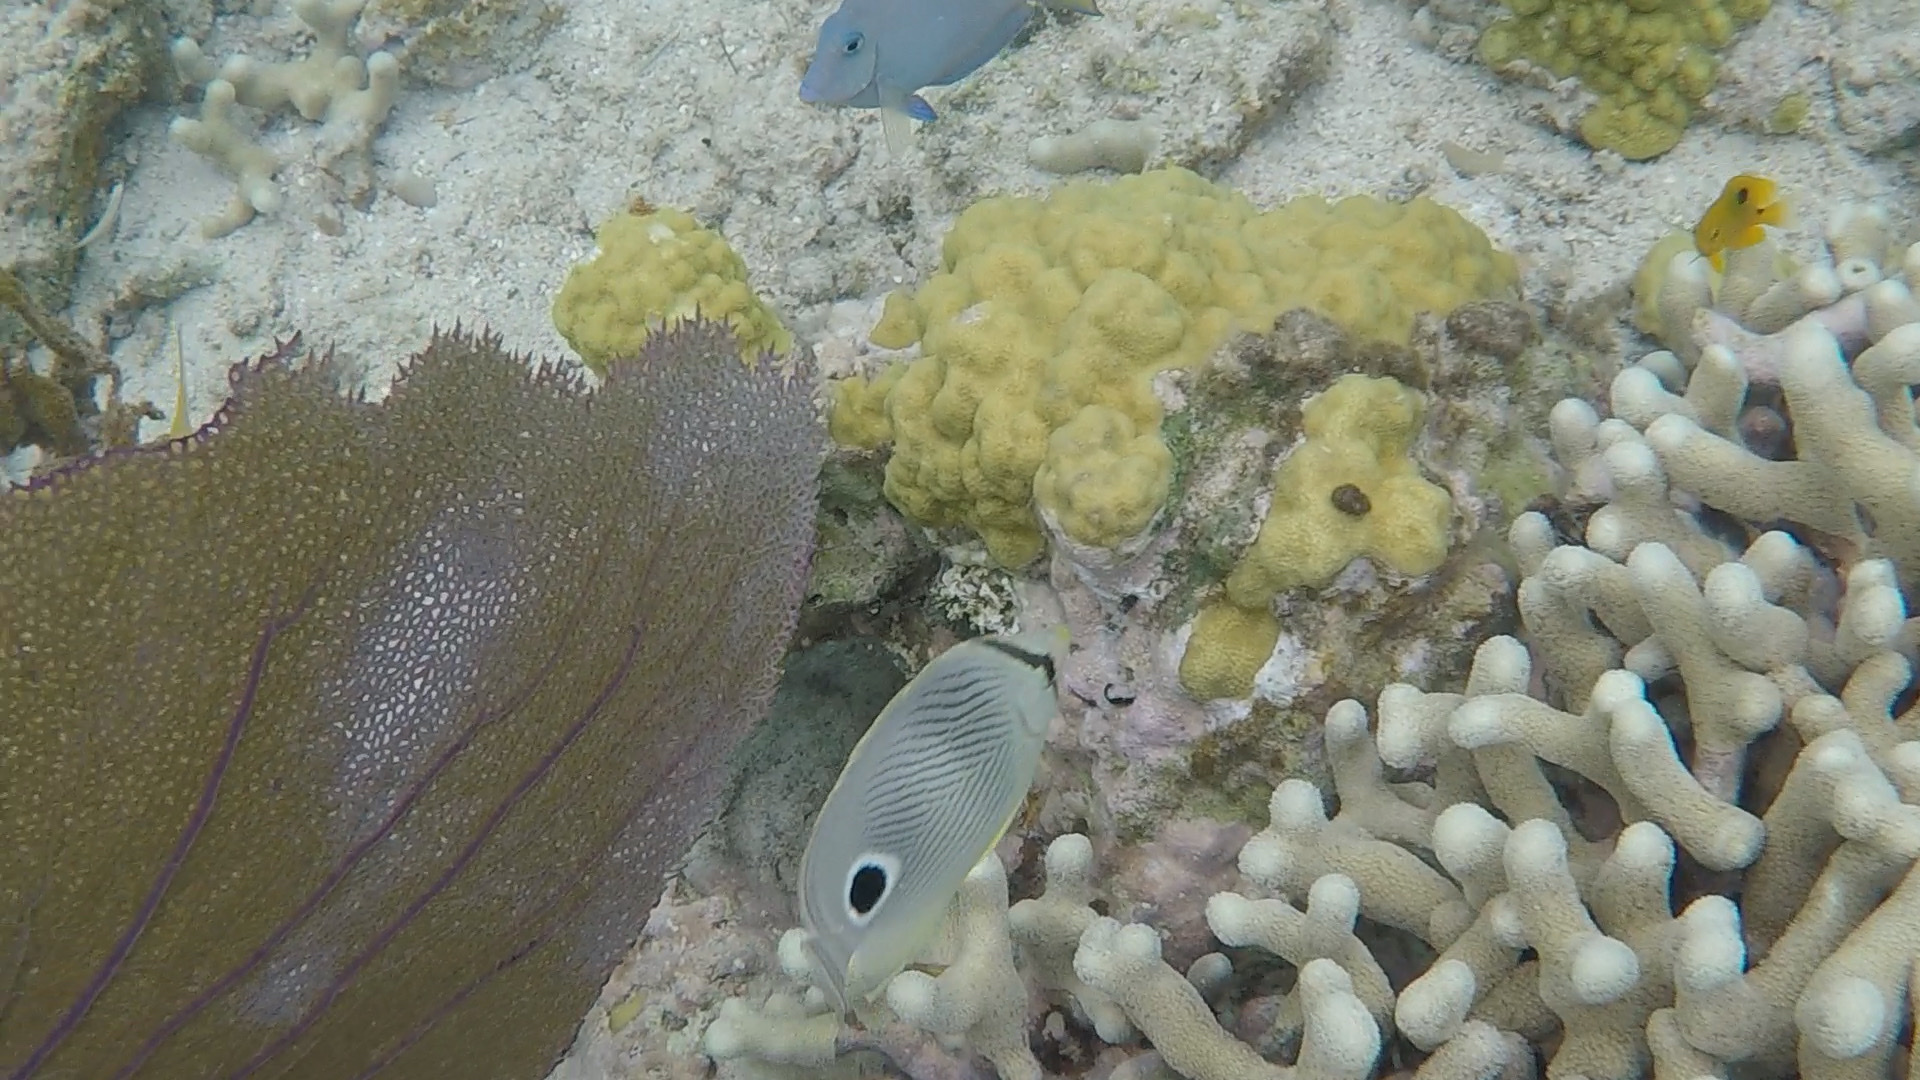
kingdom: Animalia
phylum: Chordata
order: Perciformes
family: Chaetodontidae
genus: Chaetodon
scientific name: Chaetodon capistratus
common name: Kete
